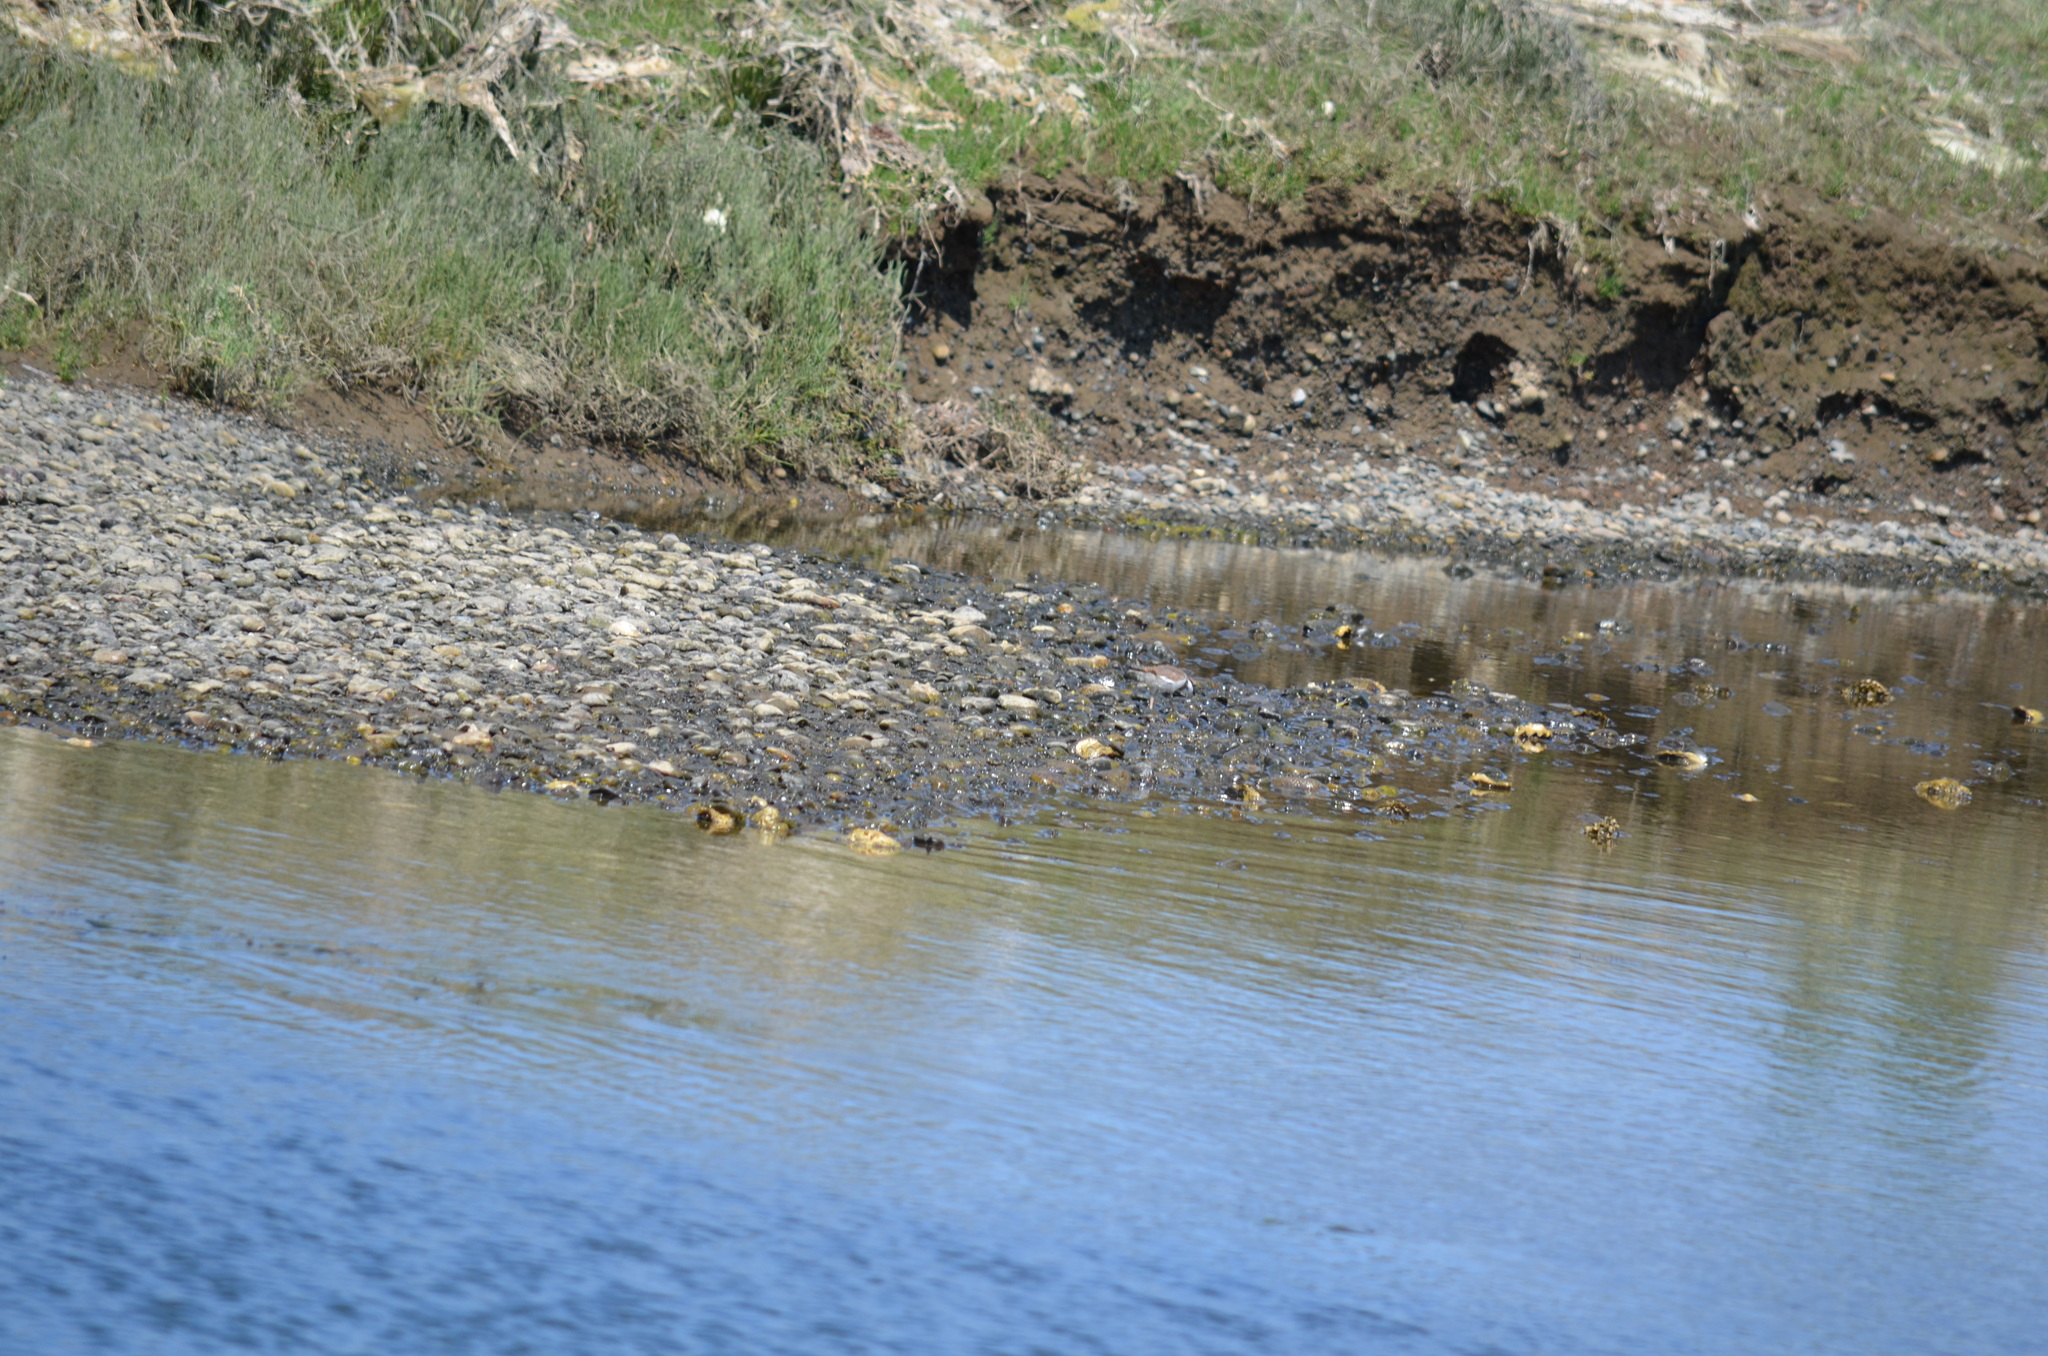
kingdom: Animalia
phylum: Chordata
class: Aves
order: Charadriiformes
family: Charadriidae
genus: Charadrius
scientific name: Charadrius vociferus
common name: Killdeer
